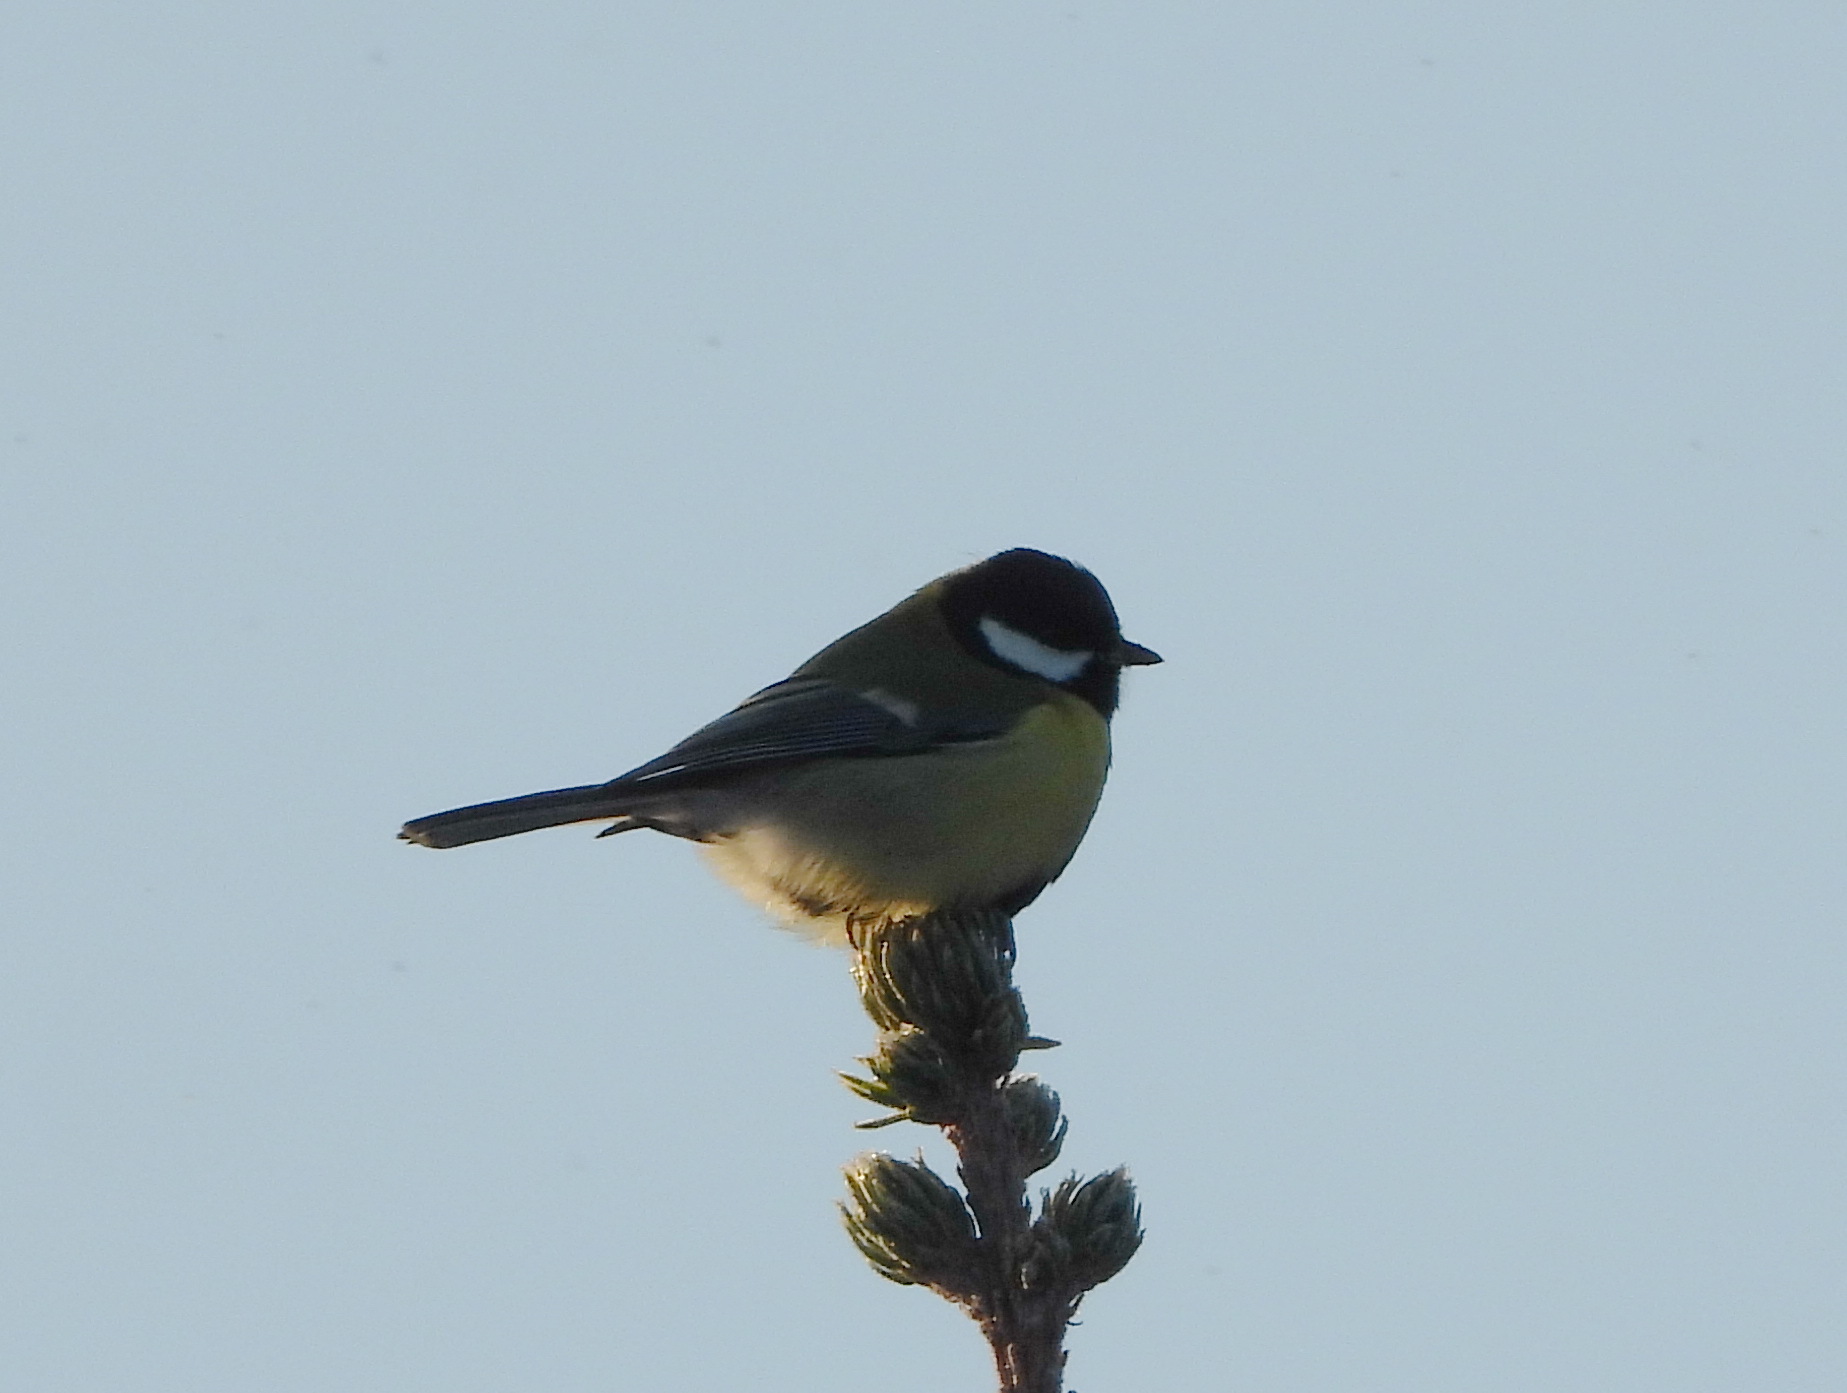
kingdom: Animalia
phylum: Chordata
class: Aves
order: Passeriformes
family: Paridae
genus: Parus
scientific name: Parus major
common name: Great tit
